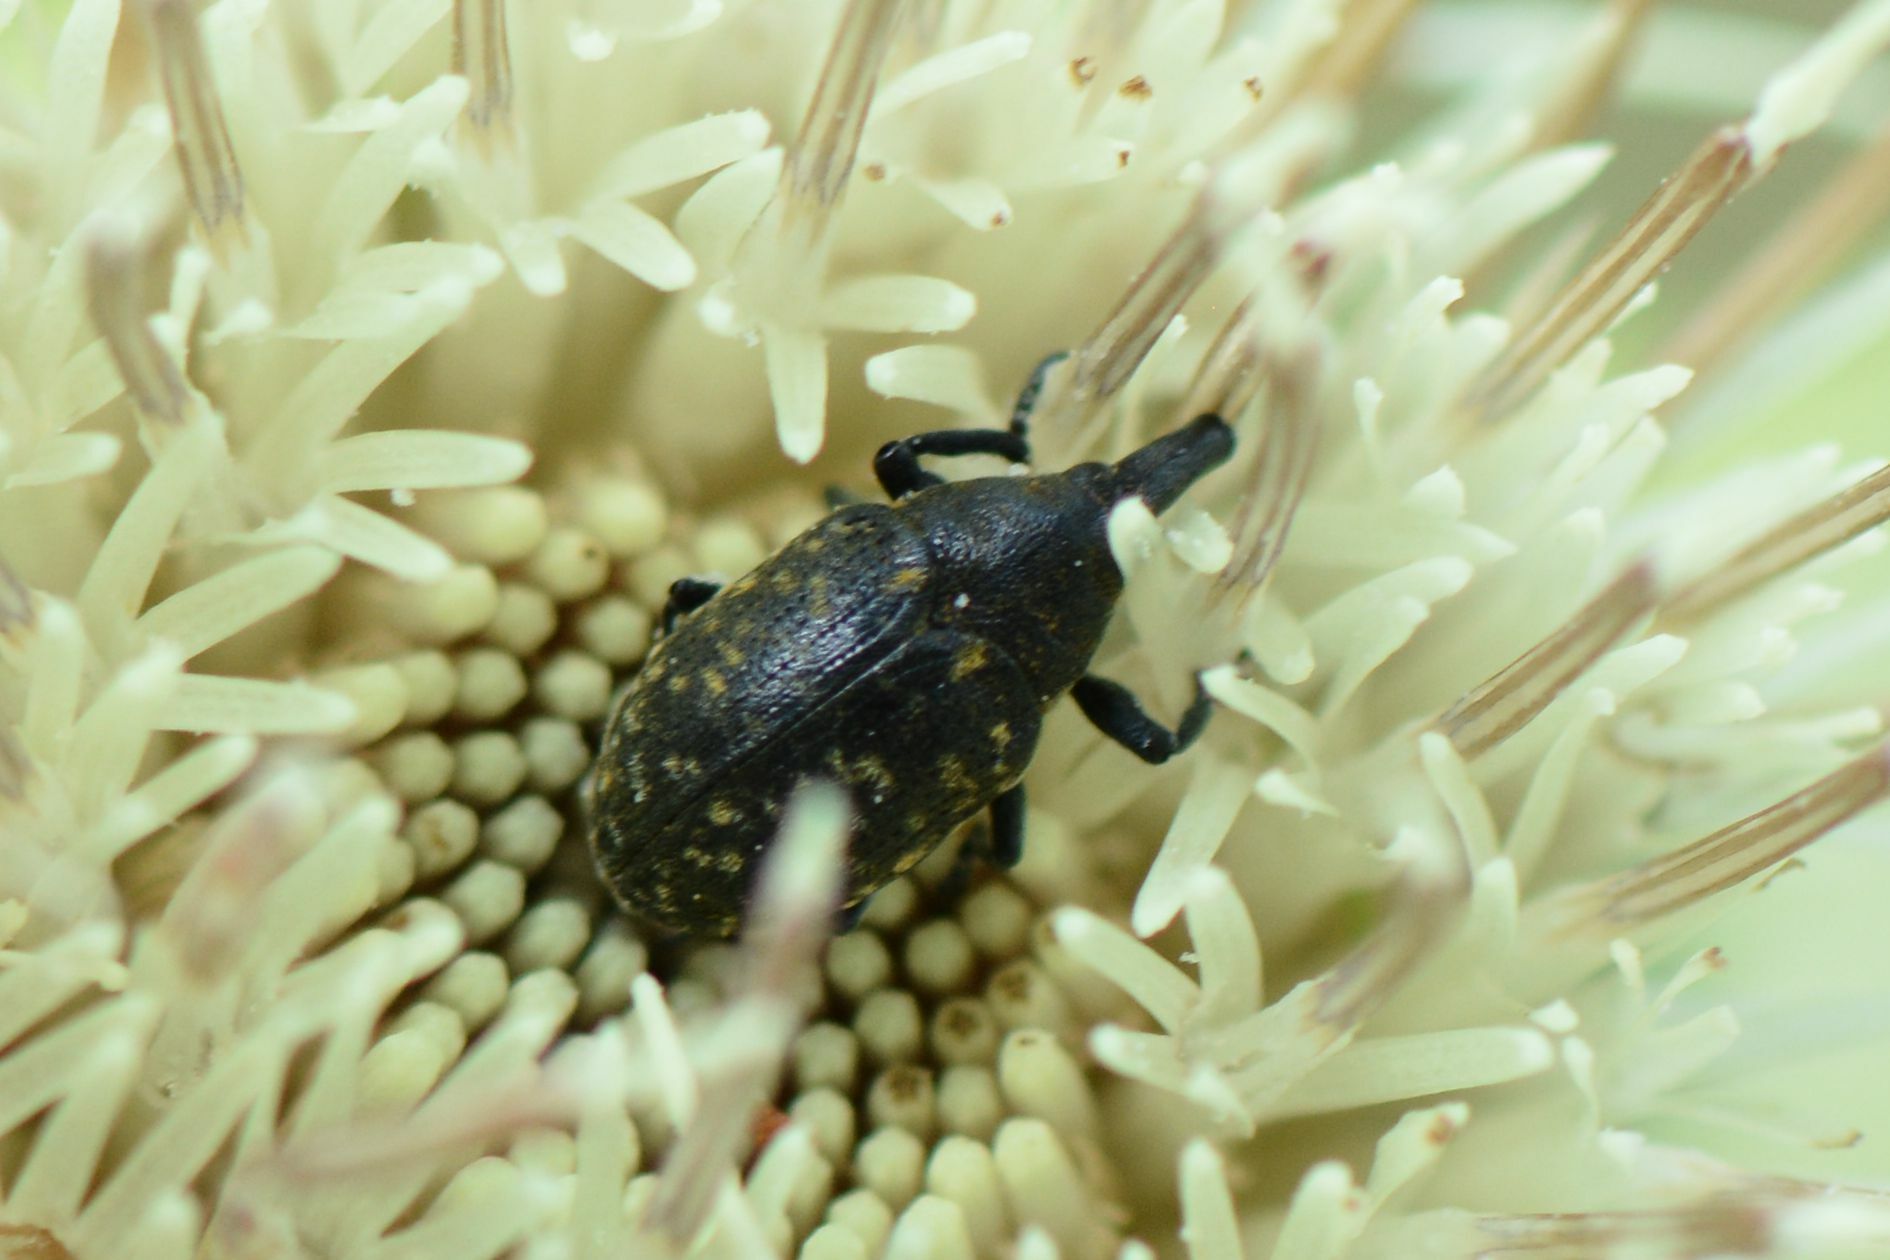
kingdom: Animalia
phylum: Arthropoda
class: Insecta
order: Coleoptera
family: Curculionidae
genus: Larinus
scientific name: Larinus turbinatus
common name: Weevil
